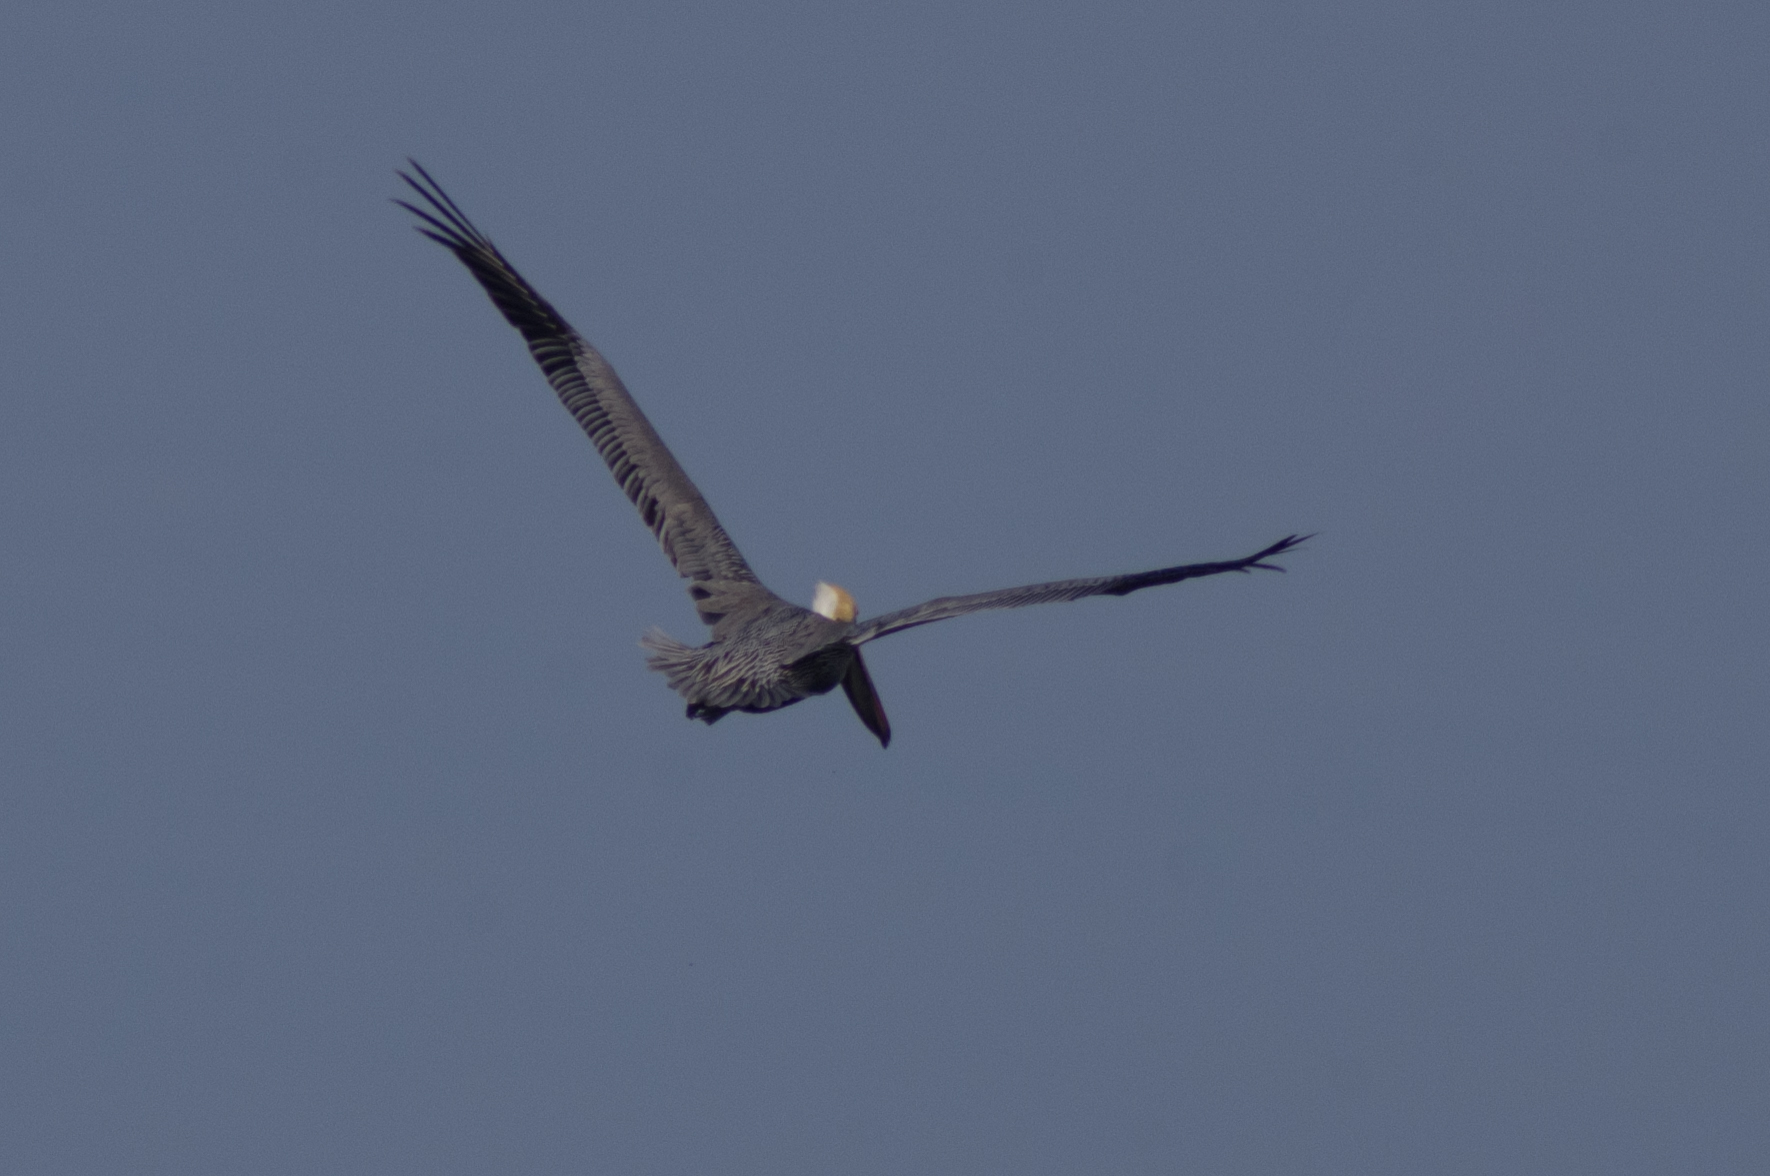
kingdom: Animalia
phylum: Chordata
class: Aves
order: Pelecaniformes
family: Pelecanidae
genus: Pelecanus
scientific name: Pelecanus occidentalis
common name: Brown pelican
